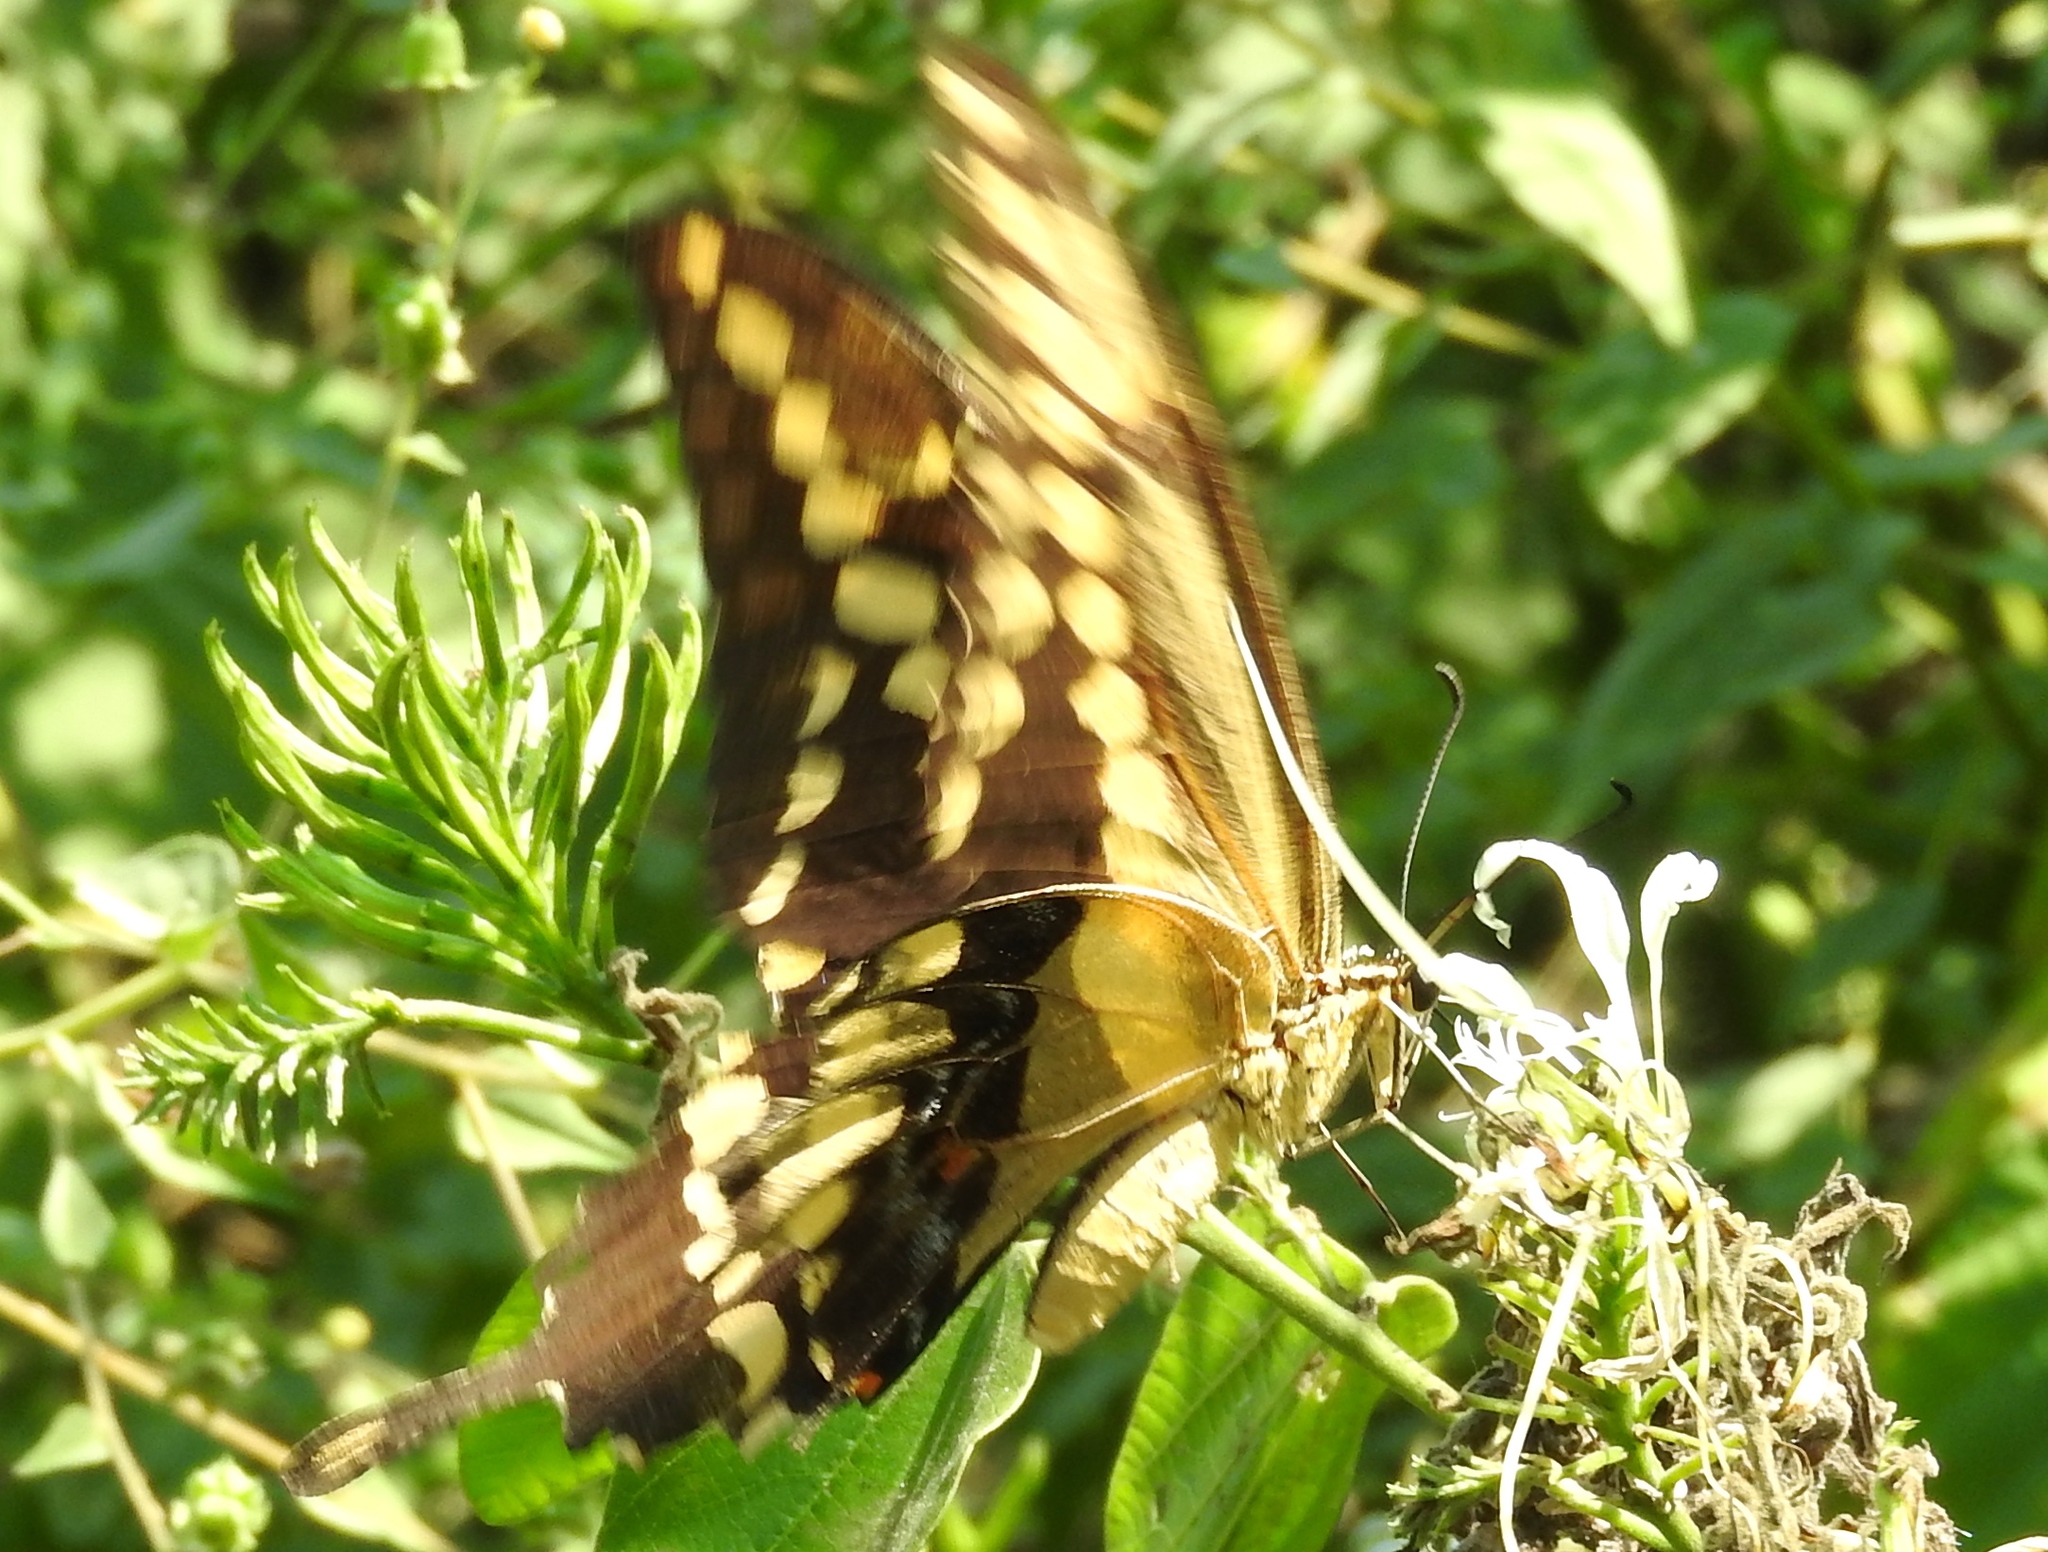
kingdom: Animalia
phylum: Arthropoda
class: Insecta
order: Lepidoptera
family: Papilionidae
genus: Papilio
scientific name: Papilio rumiko
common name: Western giant swallowtail
